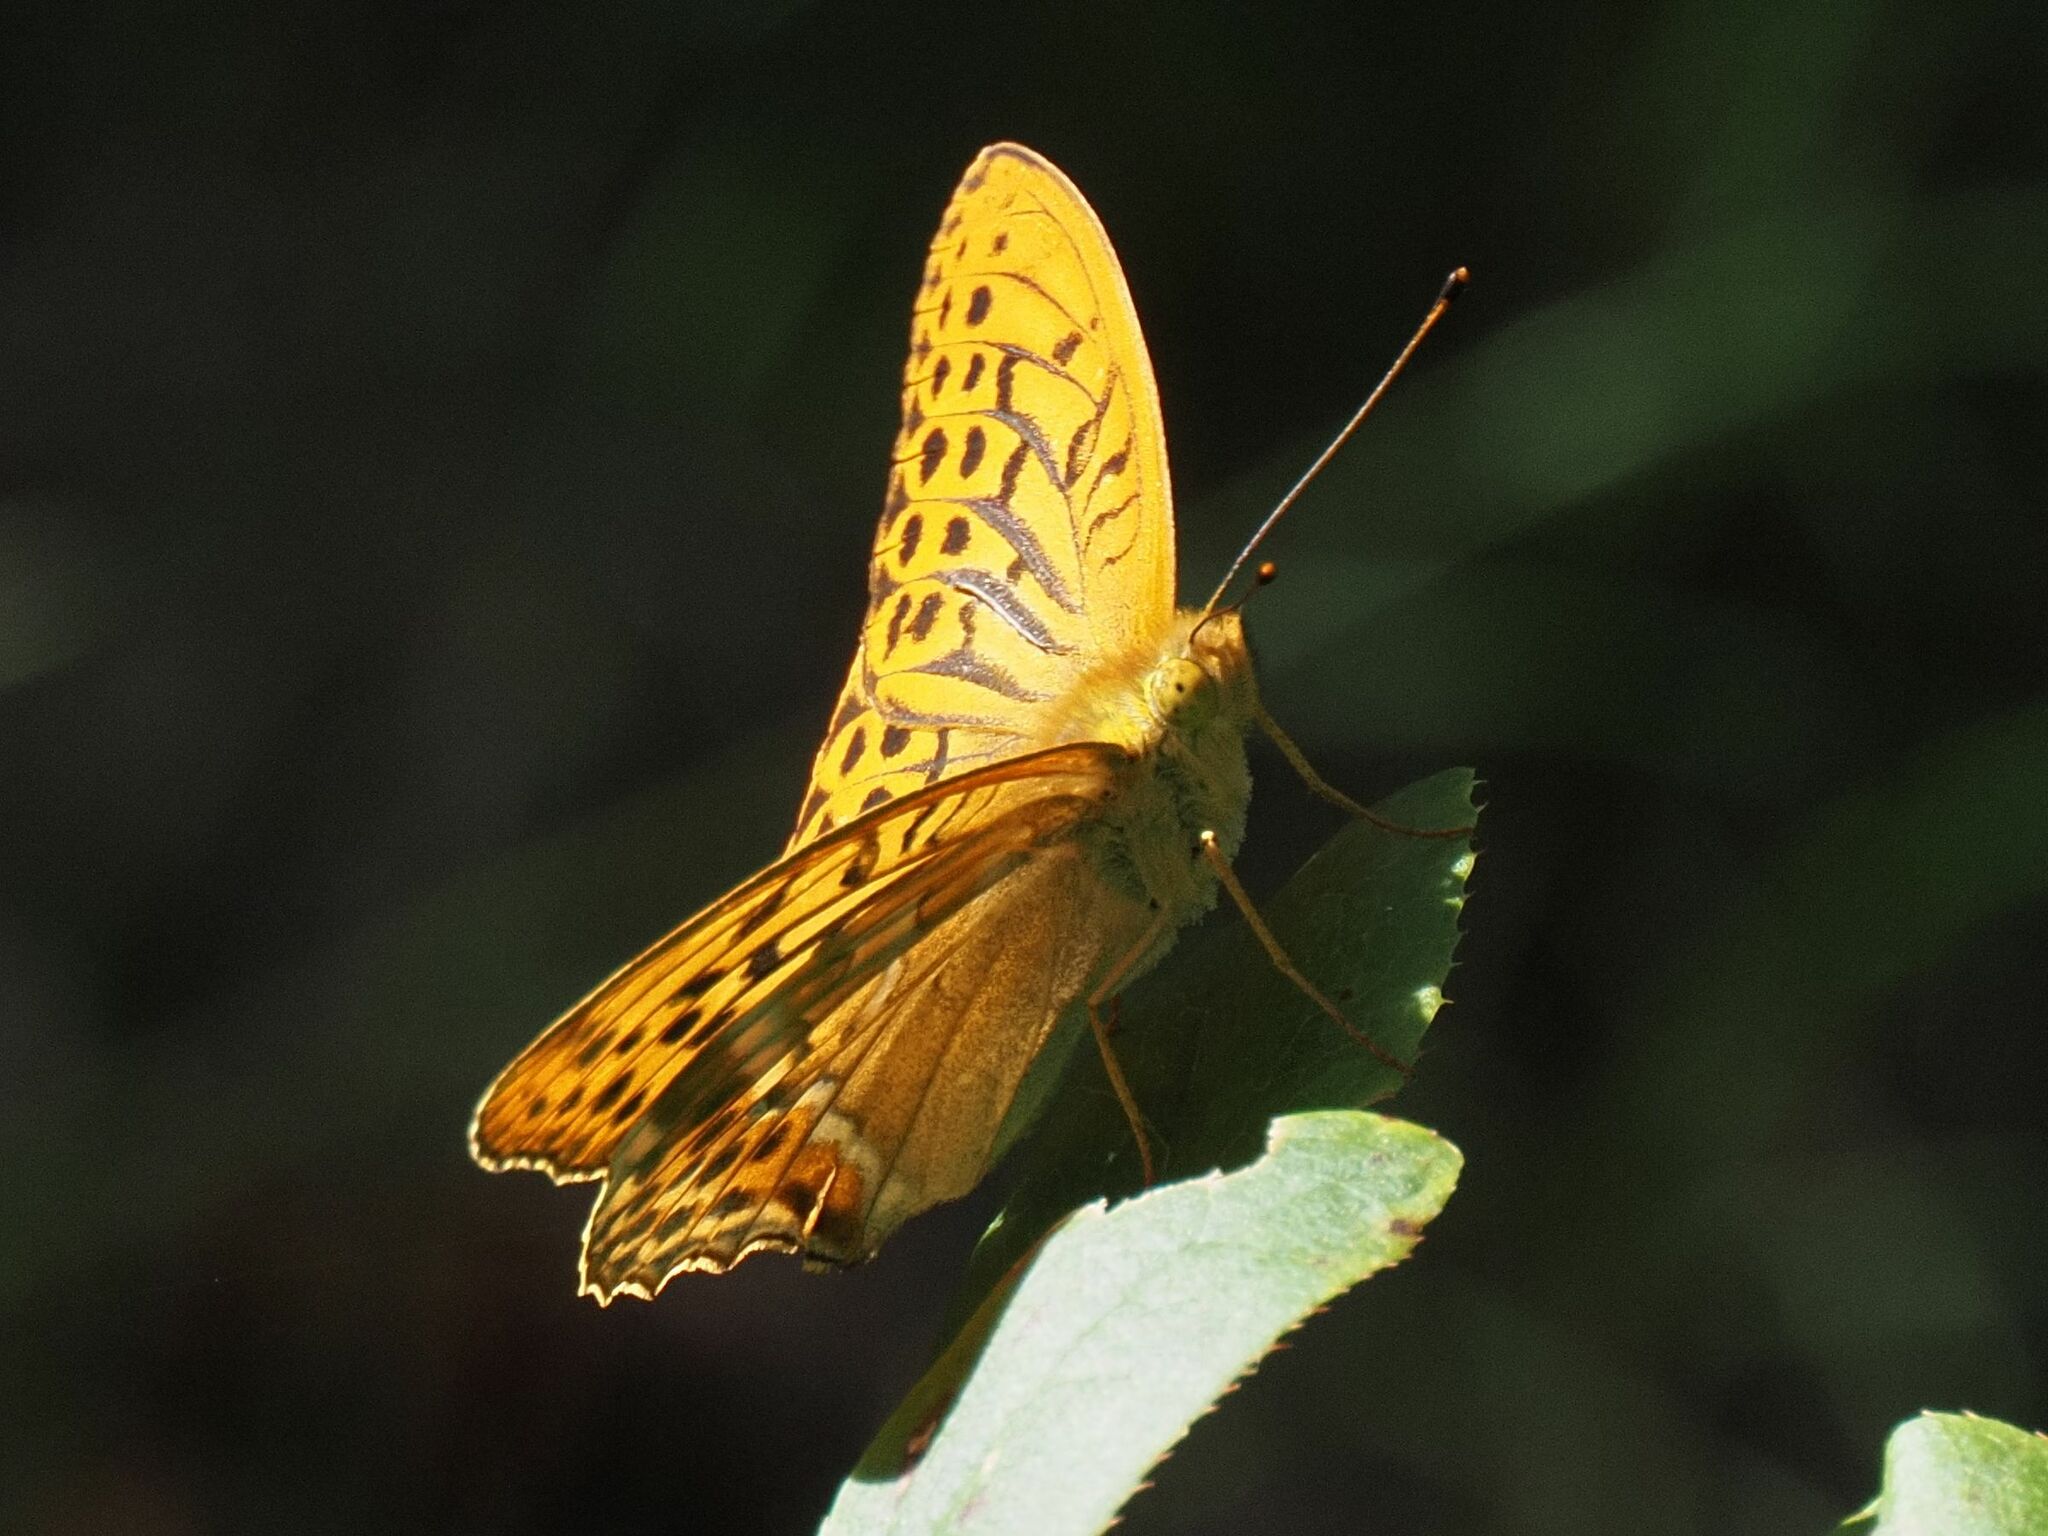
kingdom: Animalia
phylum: Arthropoda
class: Insecta
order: Lepidoptera
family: Nymphalidae
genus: Argynnis
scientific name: Argynnis paphia
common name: Silver-washed fritillary
